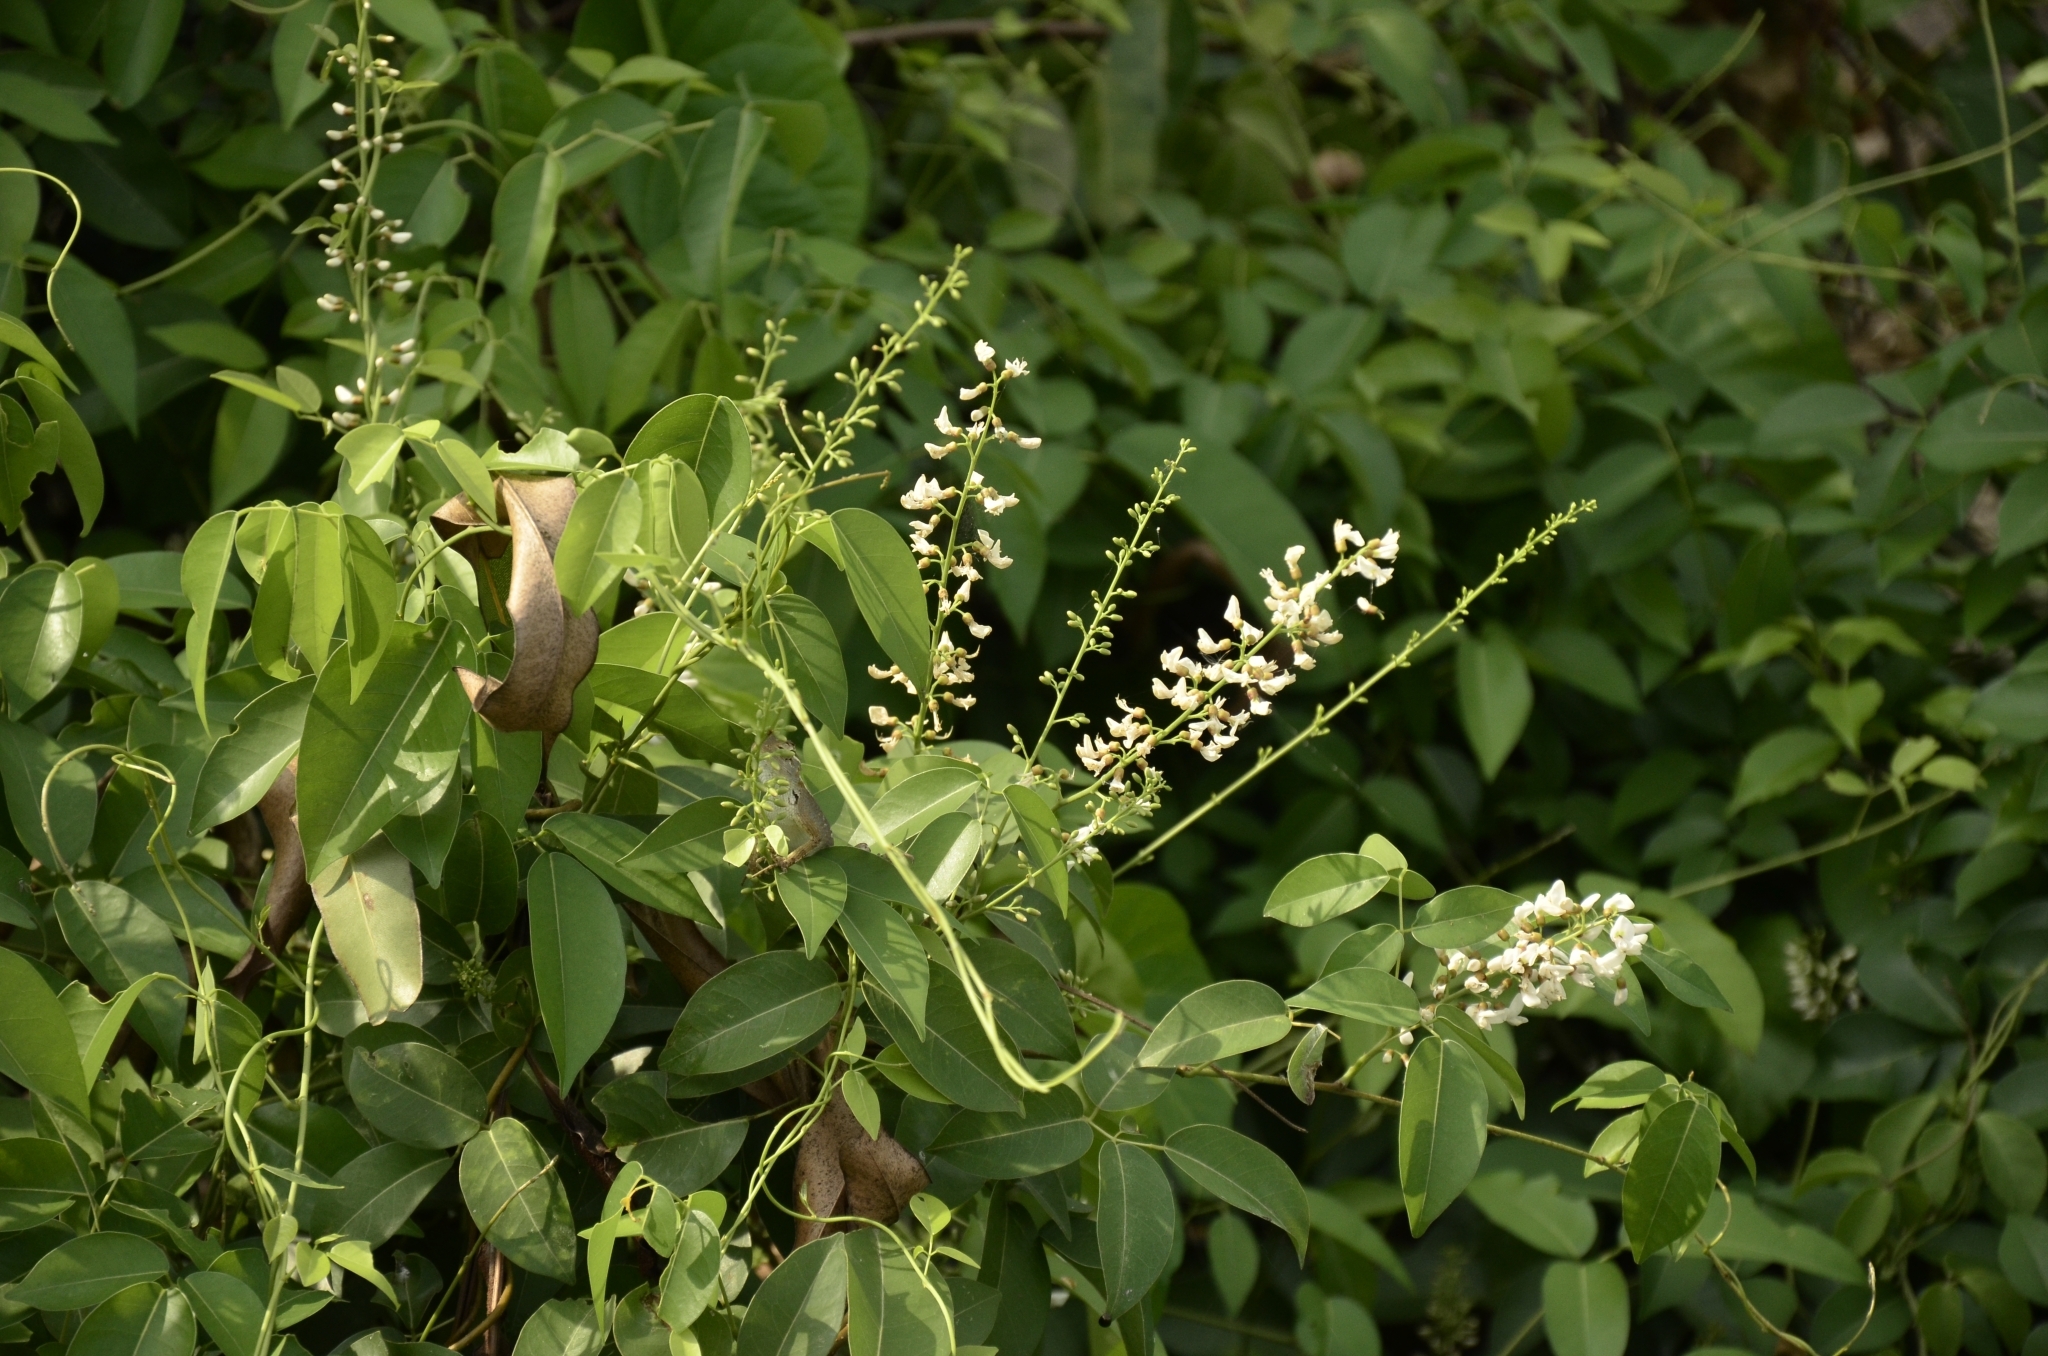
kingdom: Plantae
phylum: Tracheophyta
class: Magnoliopsida
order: Fabales
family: Fabaceae
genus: Derris
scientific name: Derris trifoliata
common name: Three-leaf derris
